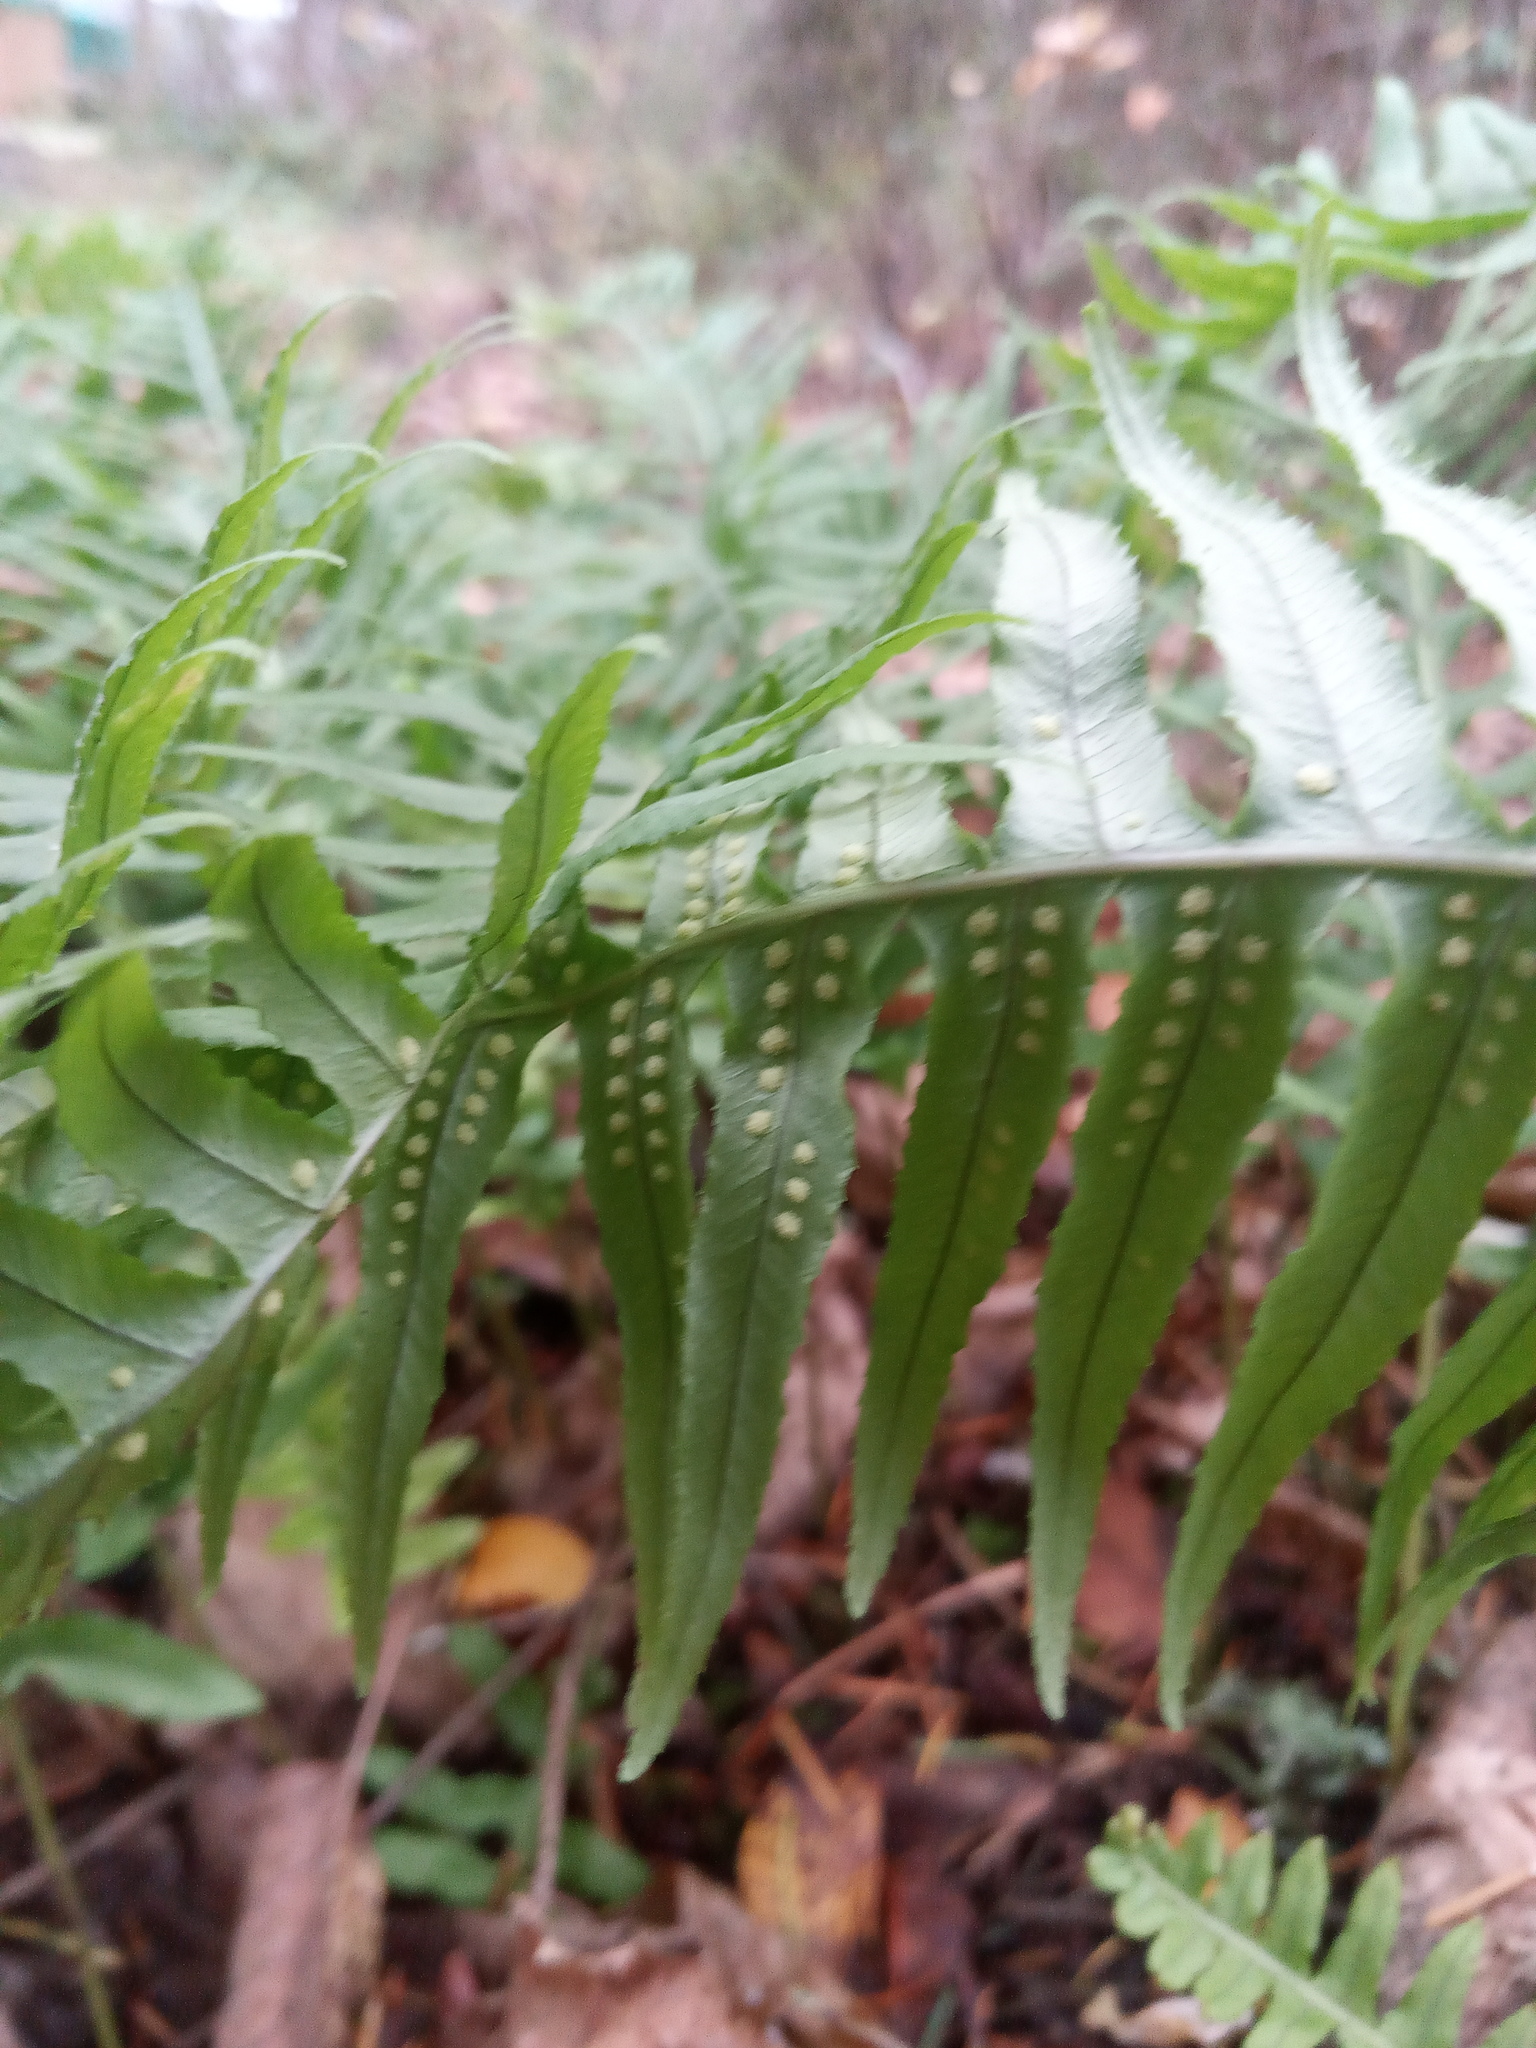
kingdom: Plantae
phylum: Tracheophyta
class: Polypodiopsida
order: Polypodiales
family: Polypodiaceae
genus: Polypodium
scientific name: Polypodium glycyrrhiza
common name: Licorice fern
